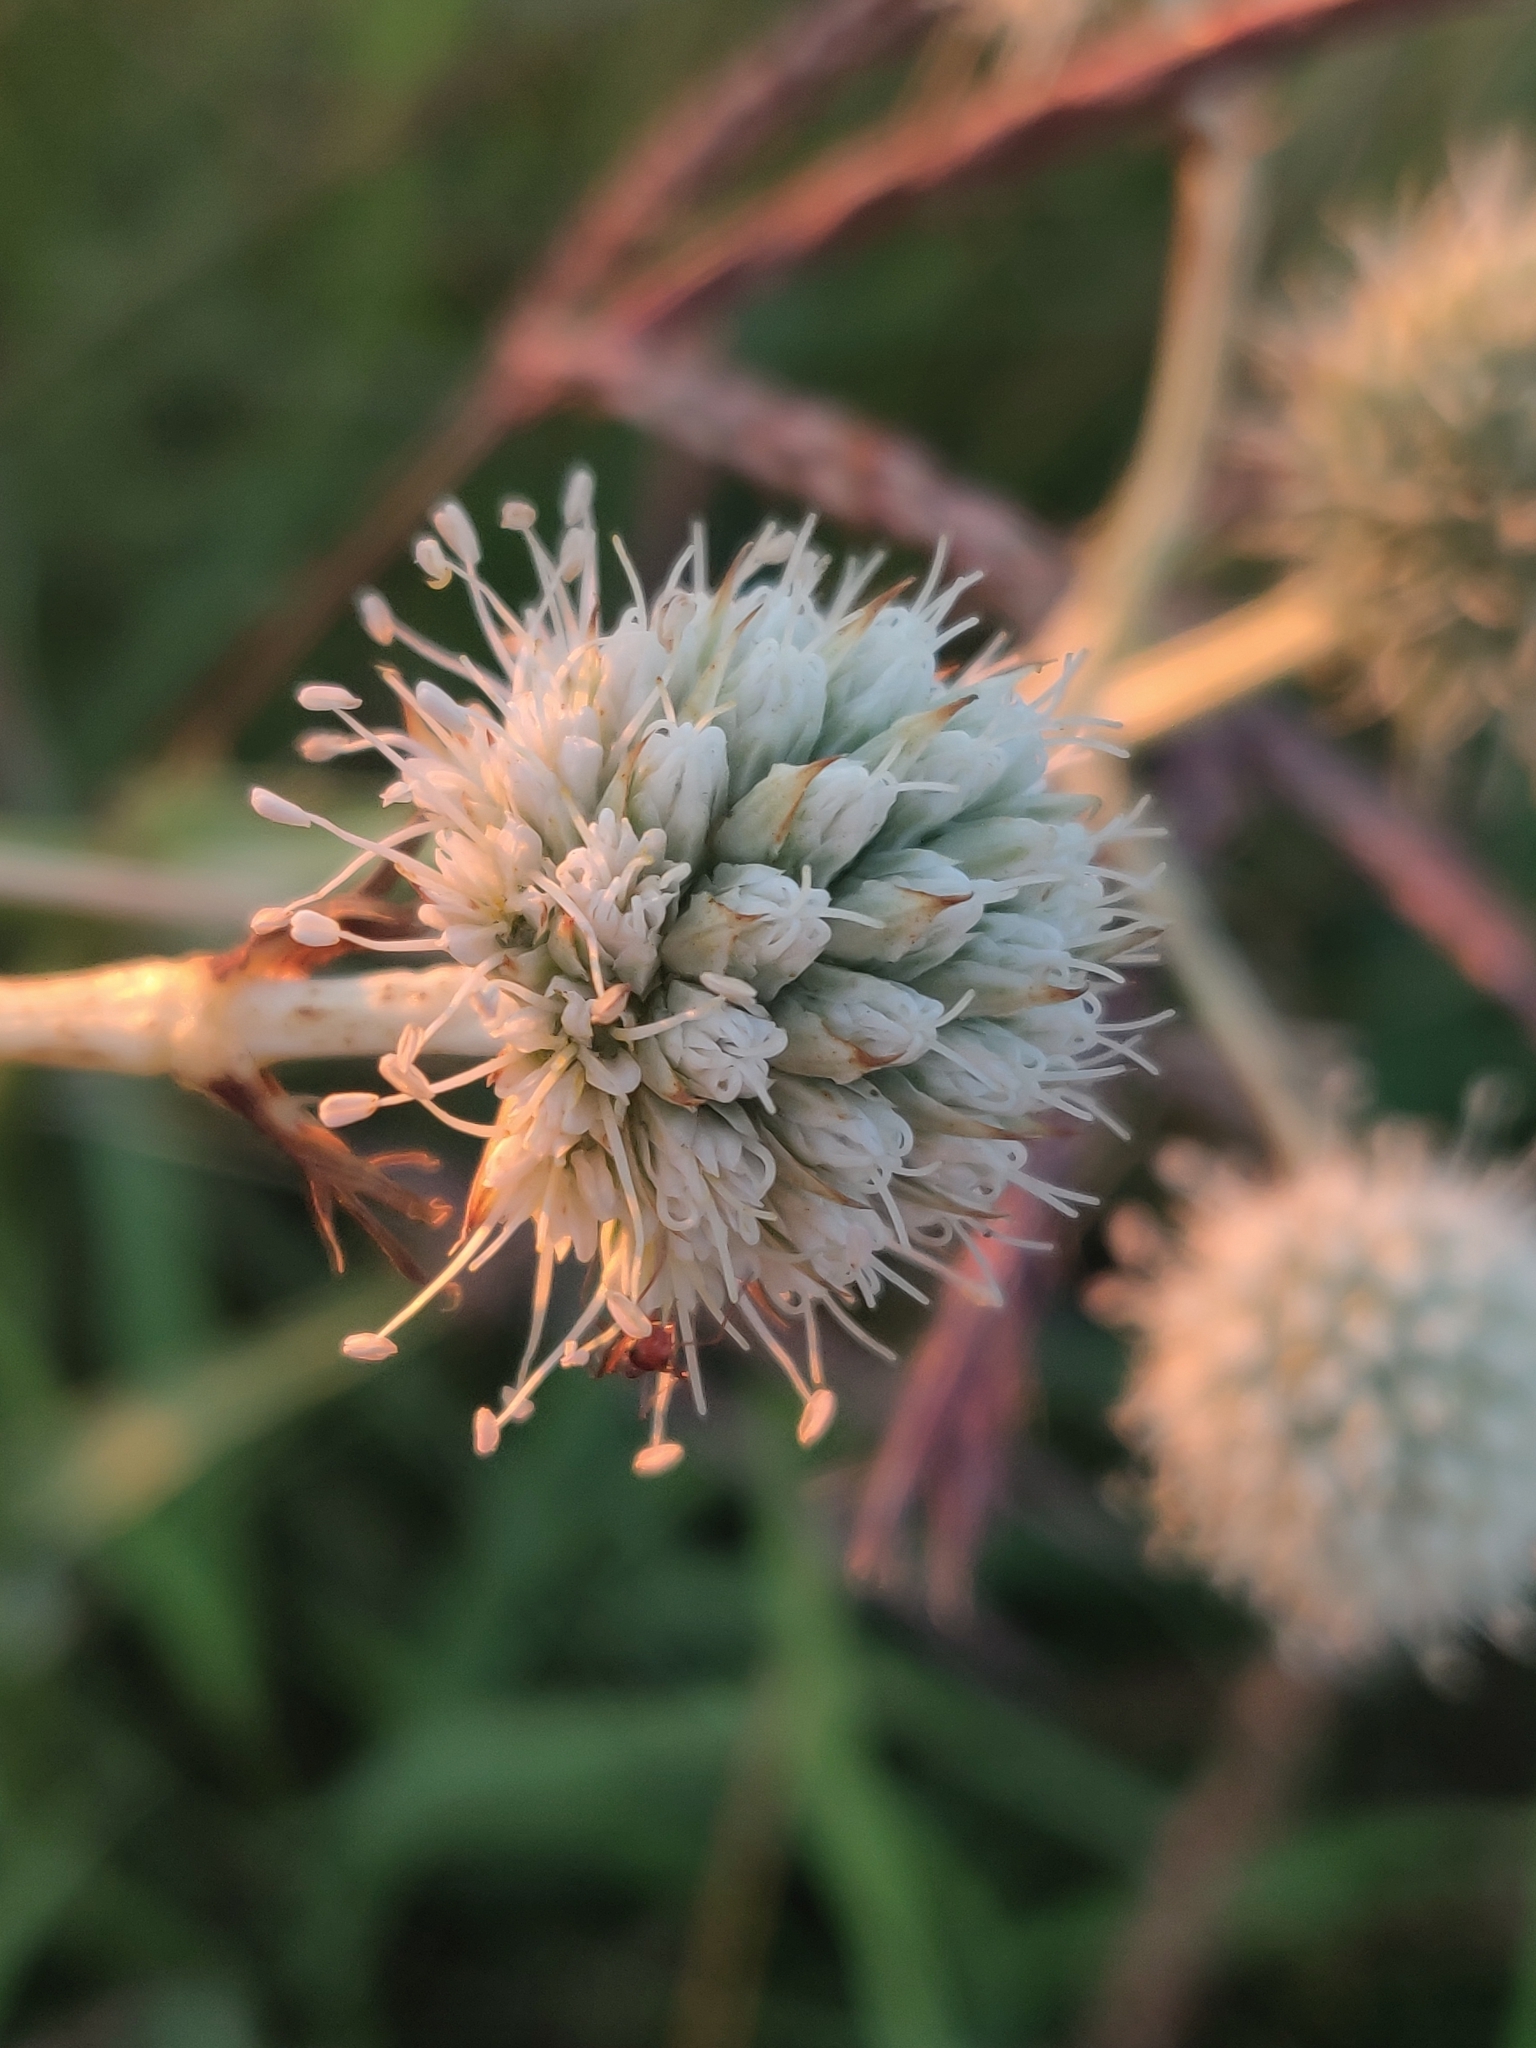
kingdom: Plantae
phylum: Tracheophyta
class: Magnoliopsida
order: Apiales
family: Apiaceae
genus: Eryngium
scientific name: Eryngium yuccifolium
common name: Button eryngo
